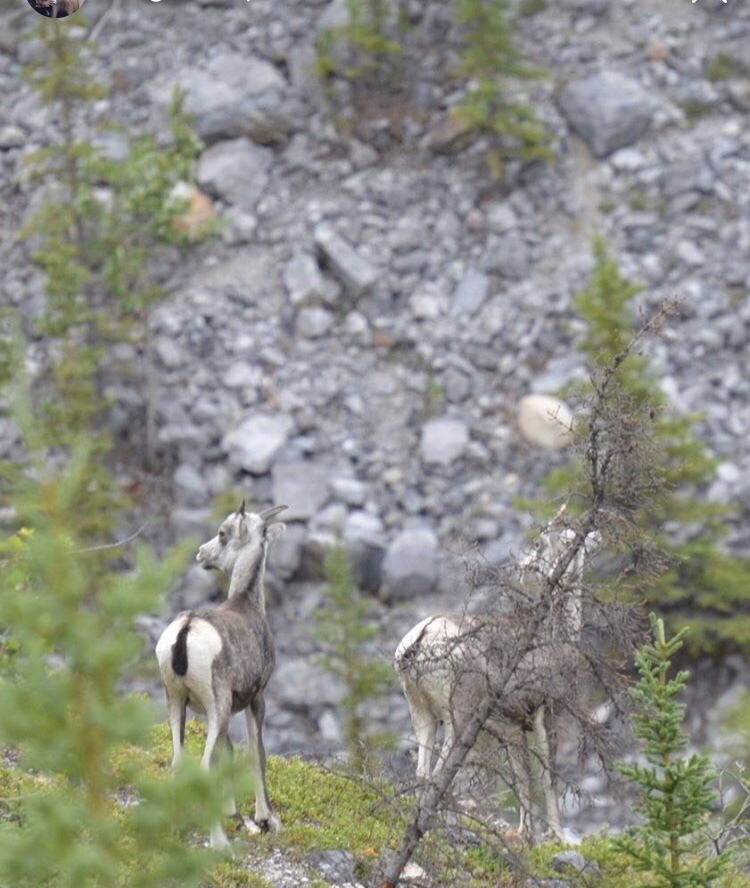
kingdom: Animalia
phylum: Chordata
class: Mammalia
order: Artiodactyla
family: Bovidae
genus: Ovis
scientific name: Ovis dalli
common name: Dall's sheep
